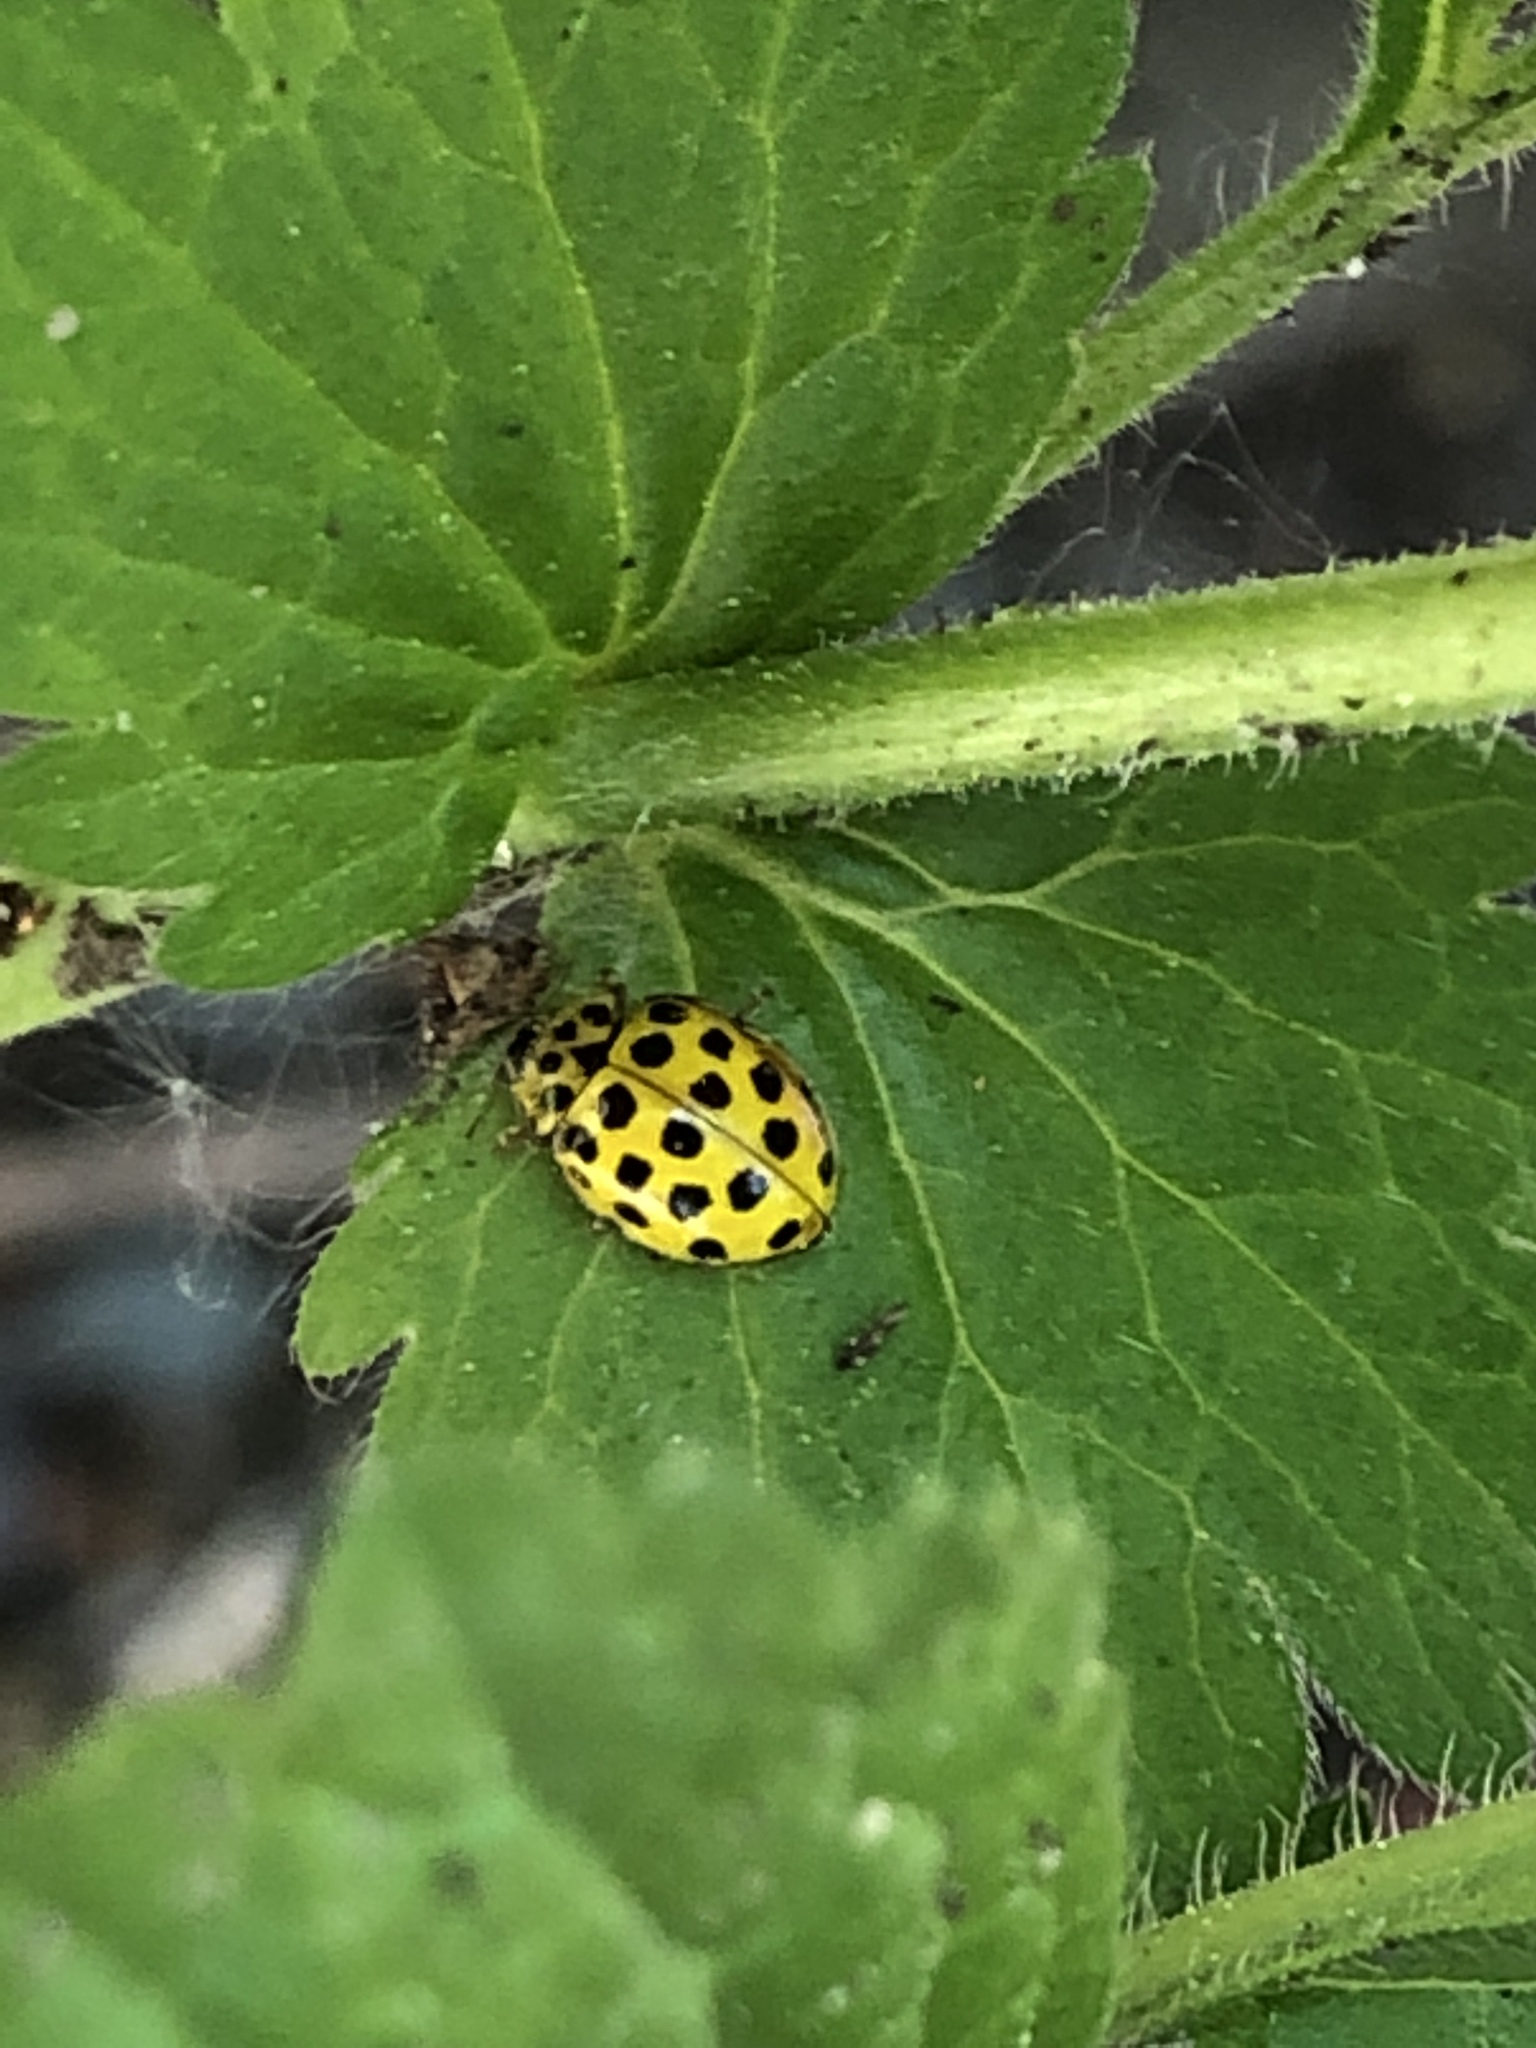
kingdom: Animalia
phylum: Arthropoda
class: Insecta
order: Coleoptera
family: Coccinellidae
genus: Psyllobora
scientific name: Psyllobora vigintiduopunctata
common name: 22-spot ladybird
